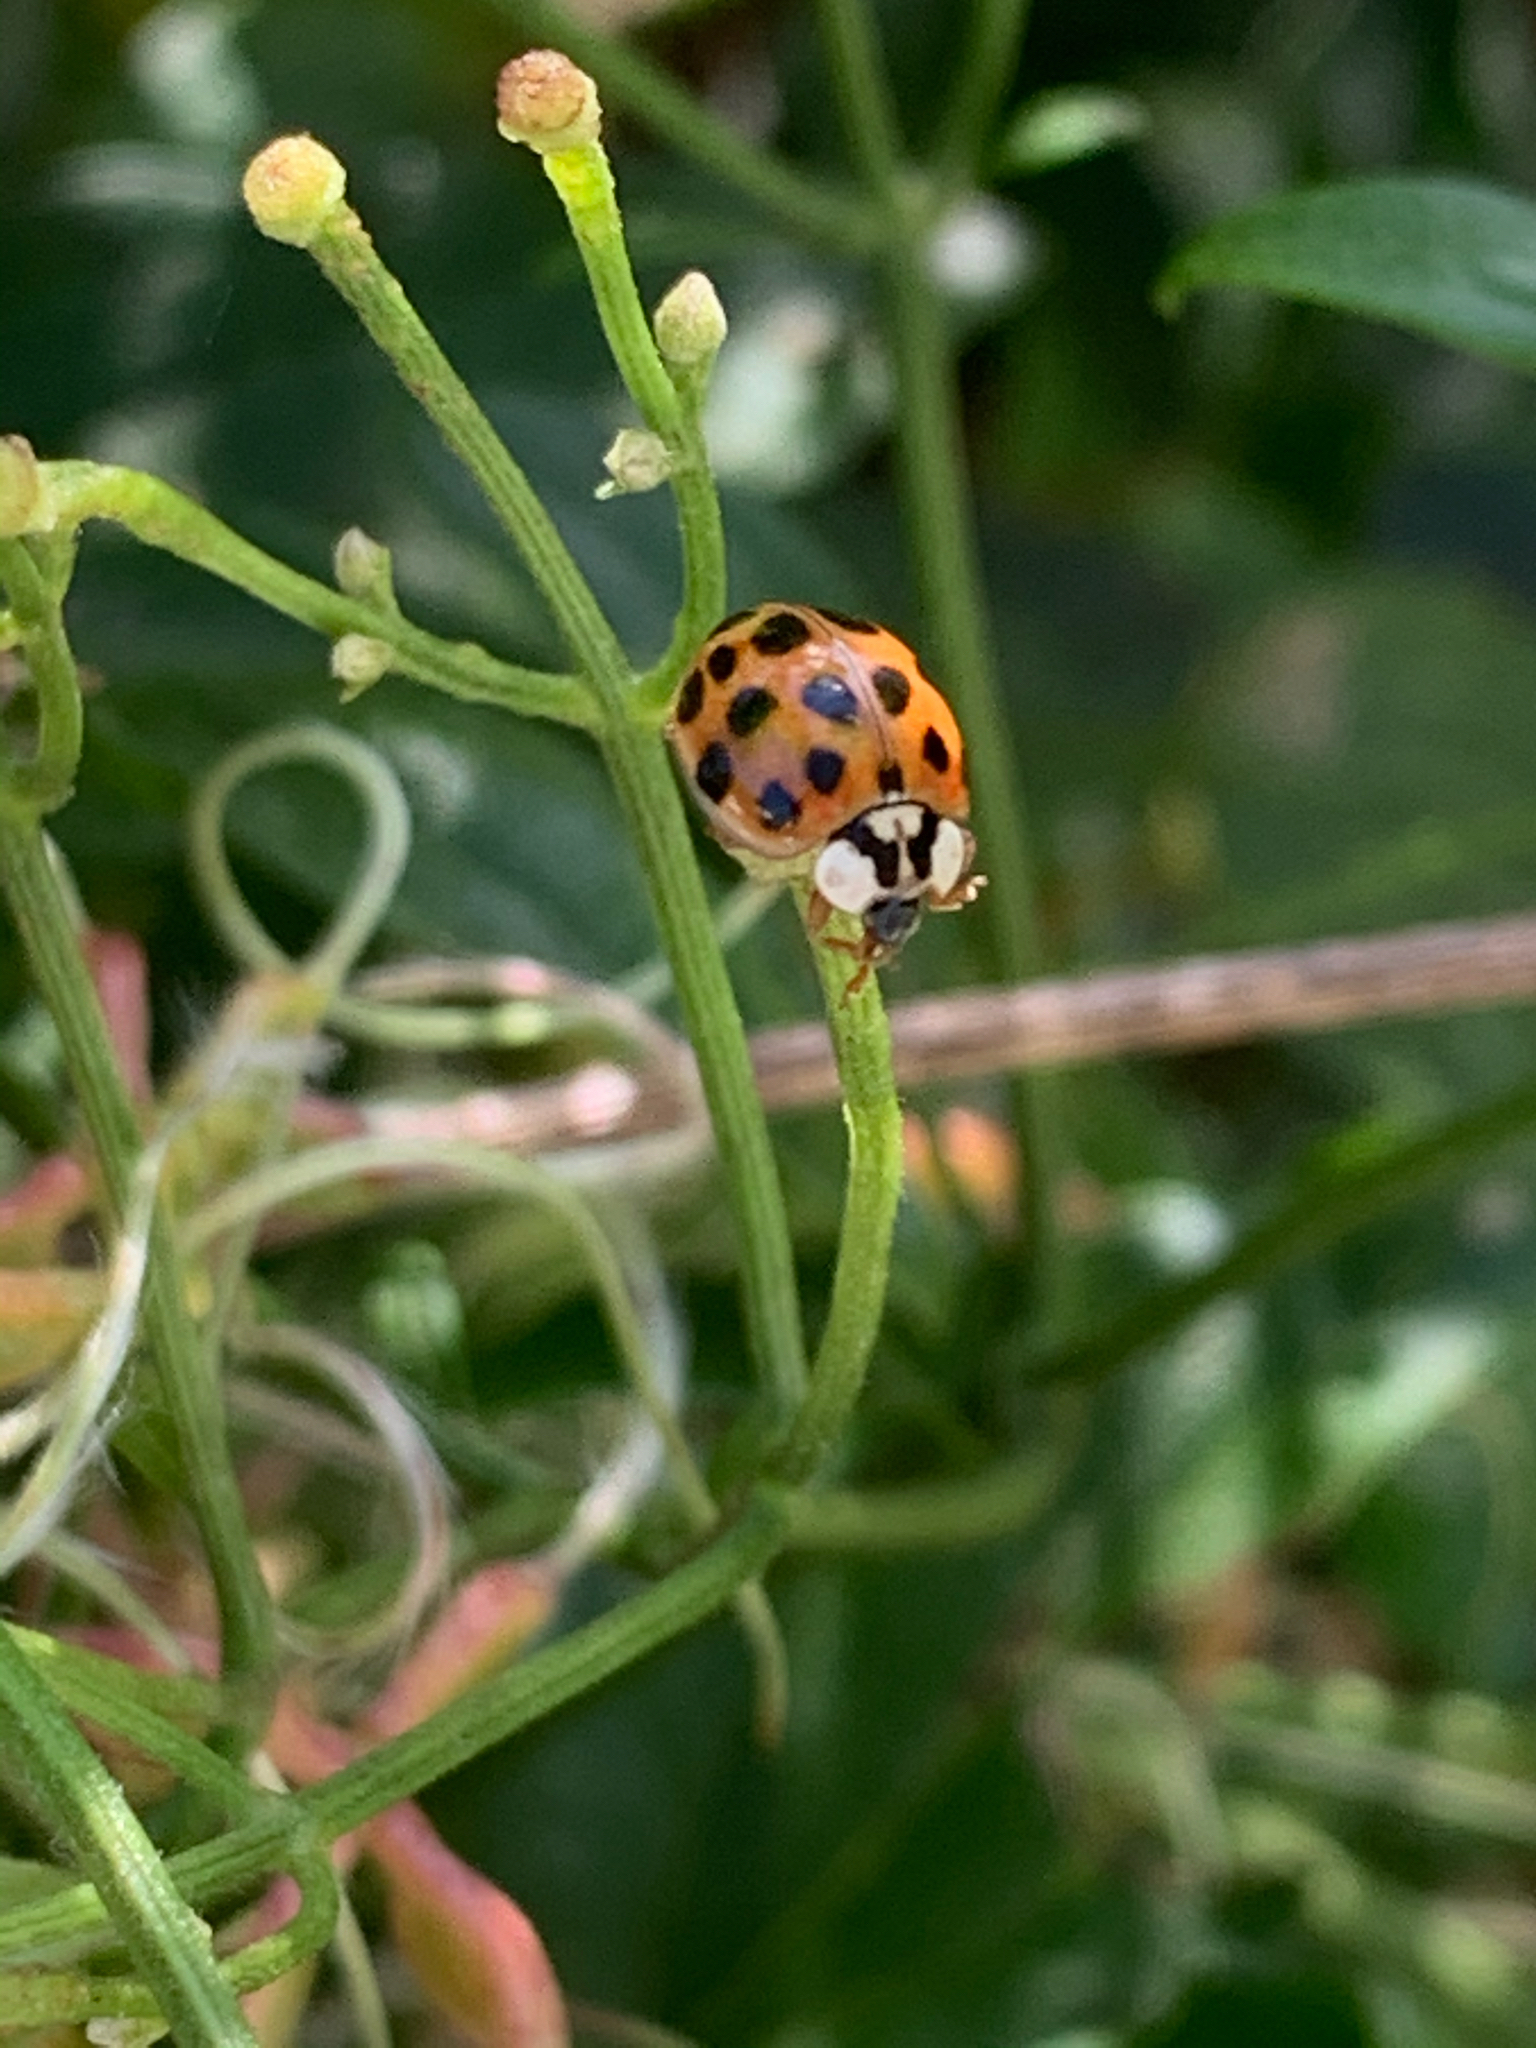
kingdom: Animalia
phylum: Arthropoda
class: Insecta
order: Coleoptera
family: Coccinellidae
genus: Harmonia
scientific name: Harmonia axyridis
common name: Harlequin ladybird
